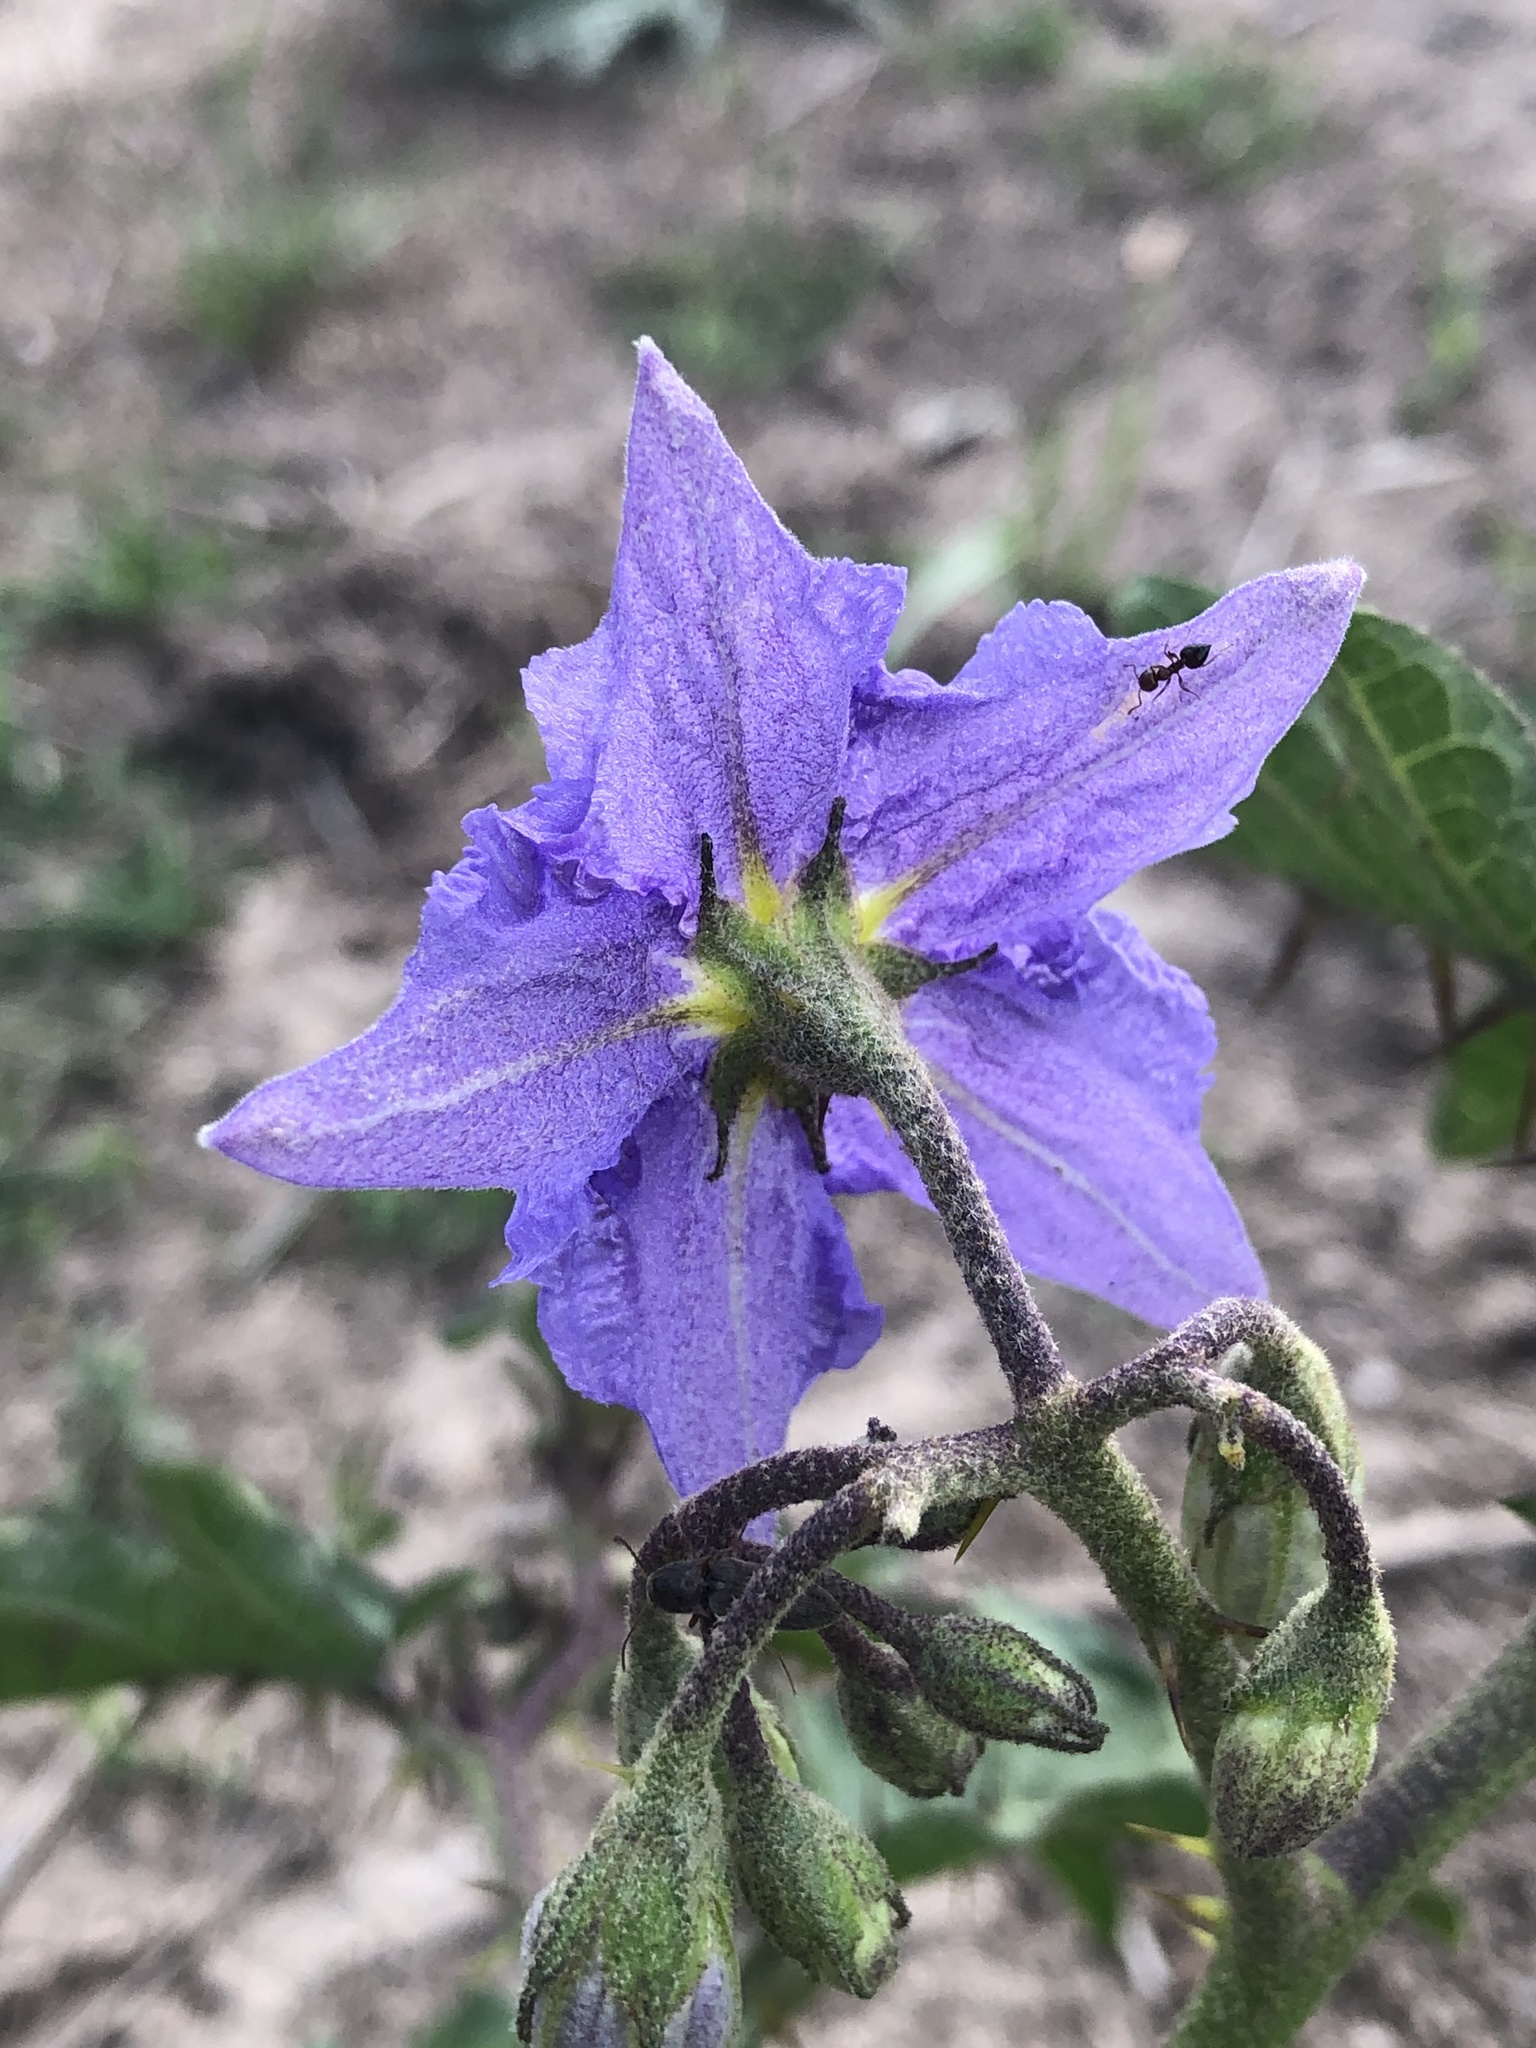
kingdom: Plantae
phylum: Tracheophyta
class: Magnoliopsida
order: Solanales
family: Solanaceae
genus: Solanum
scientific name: Solanum dimidiatum
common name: Carolina horse-nettle
